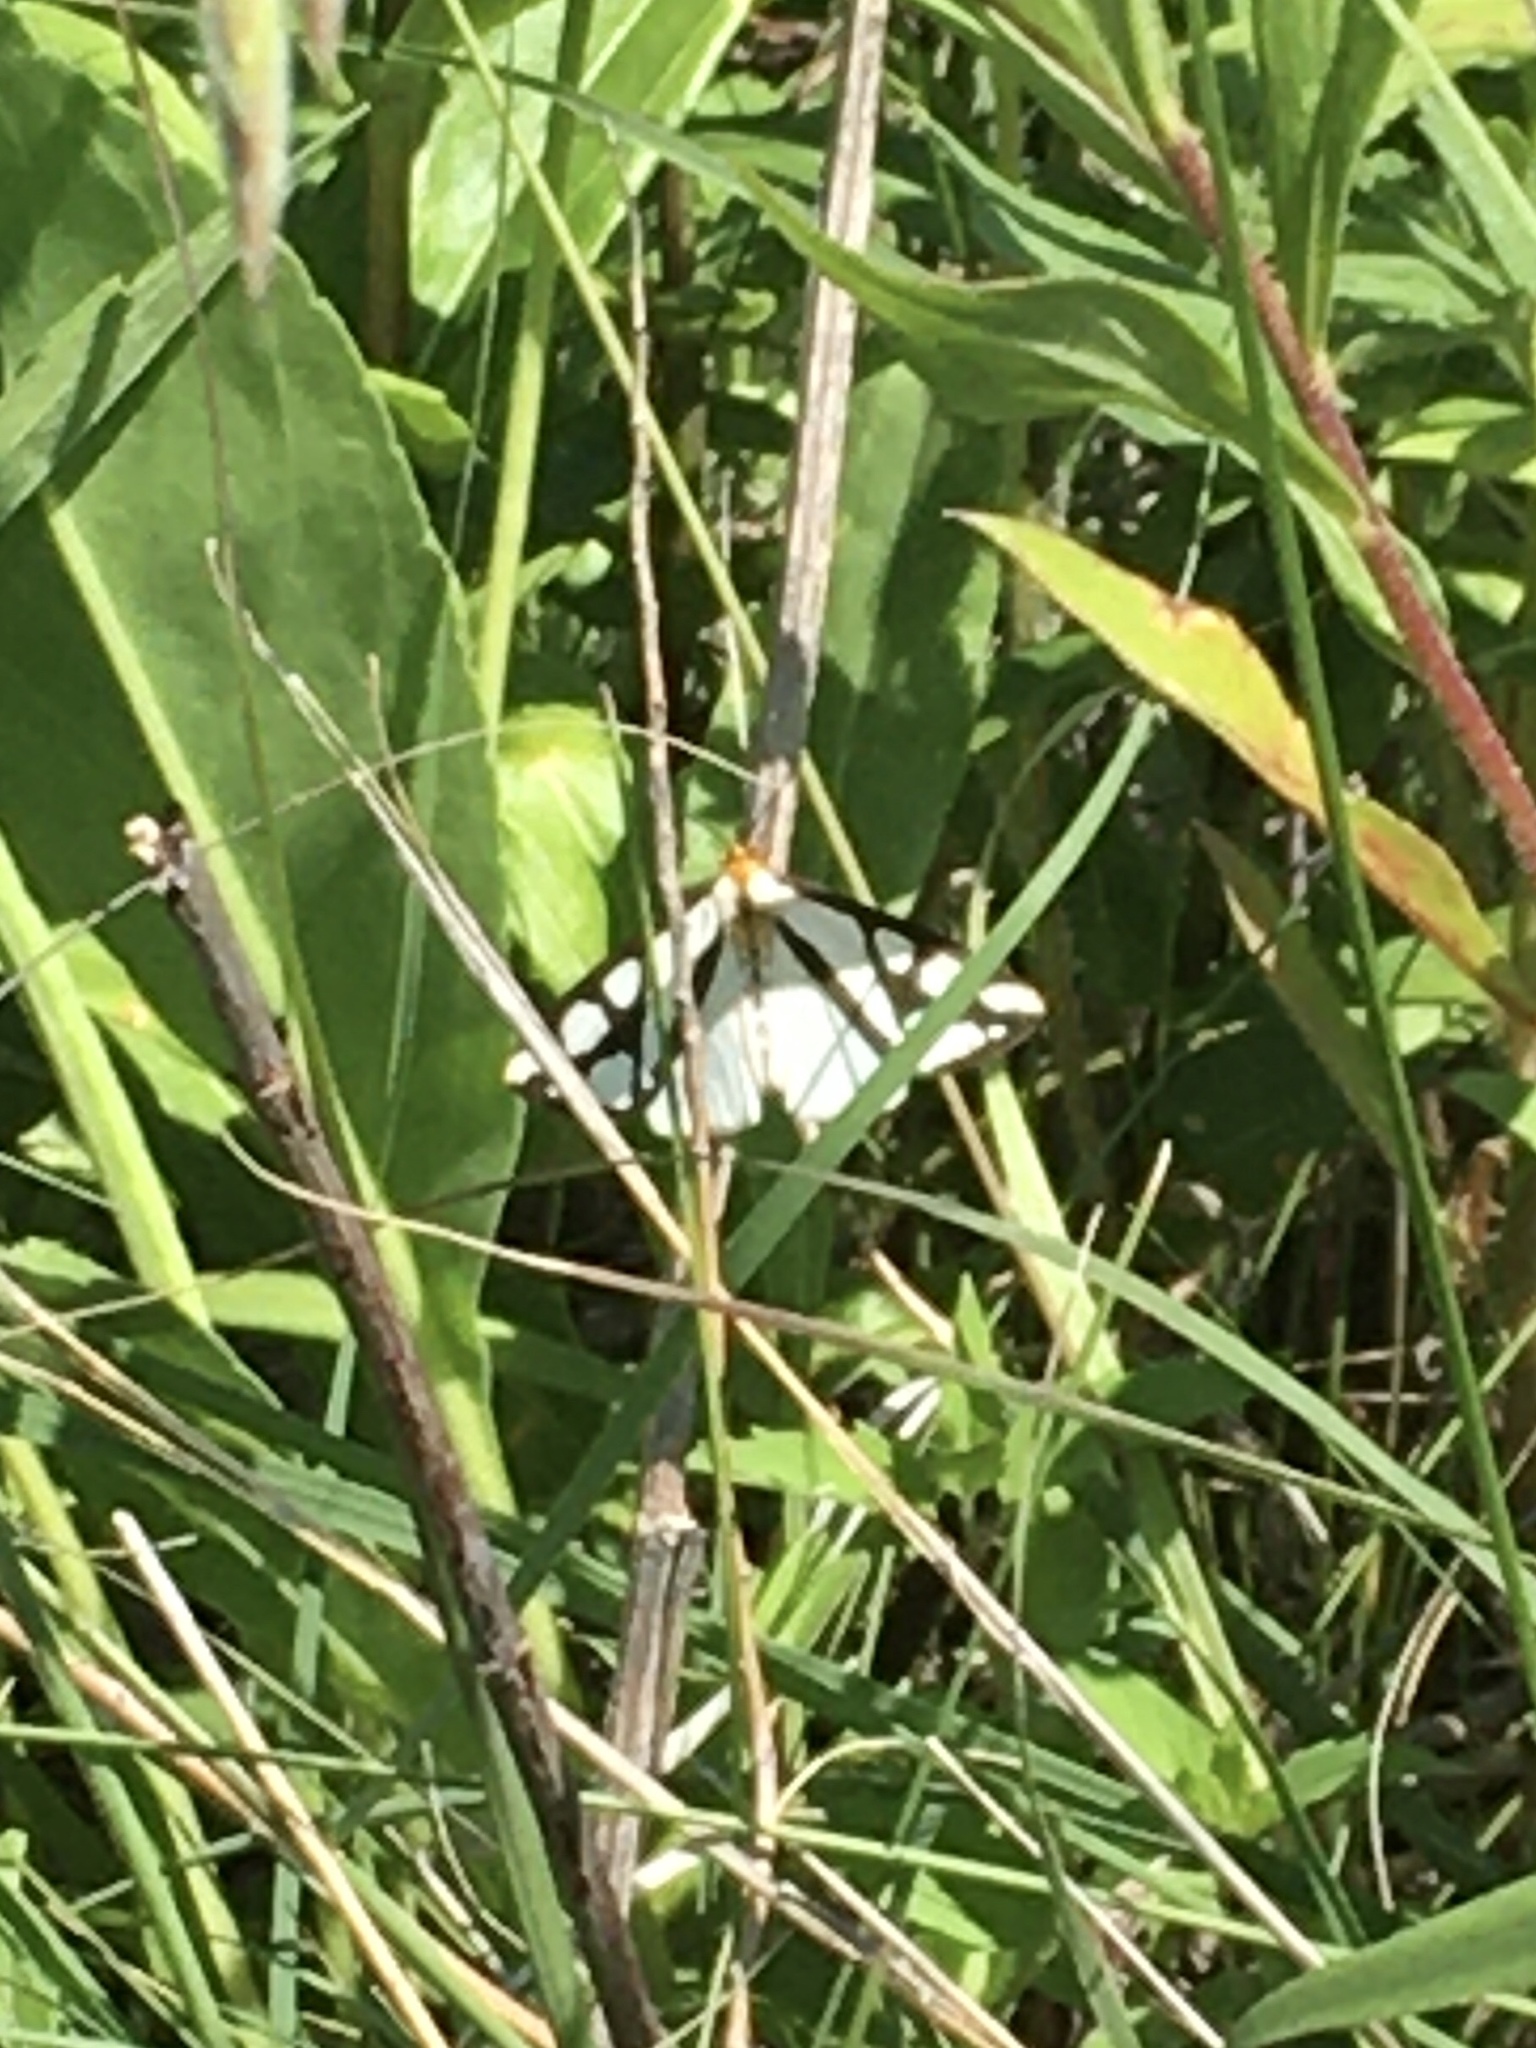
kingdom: Animalia
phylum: Arthropoda
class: Insecta
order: Lepidoptera
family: Erebidae
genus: Haploa
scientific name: Haploa reversa
